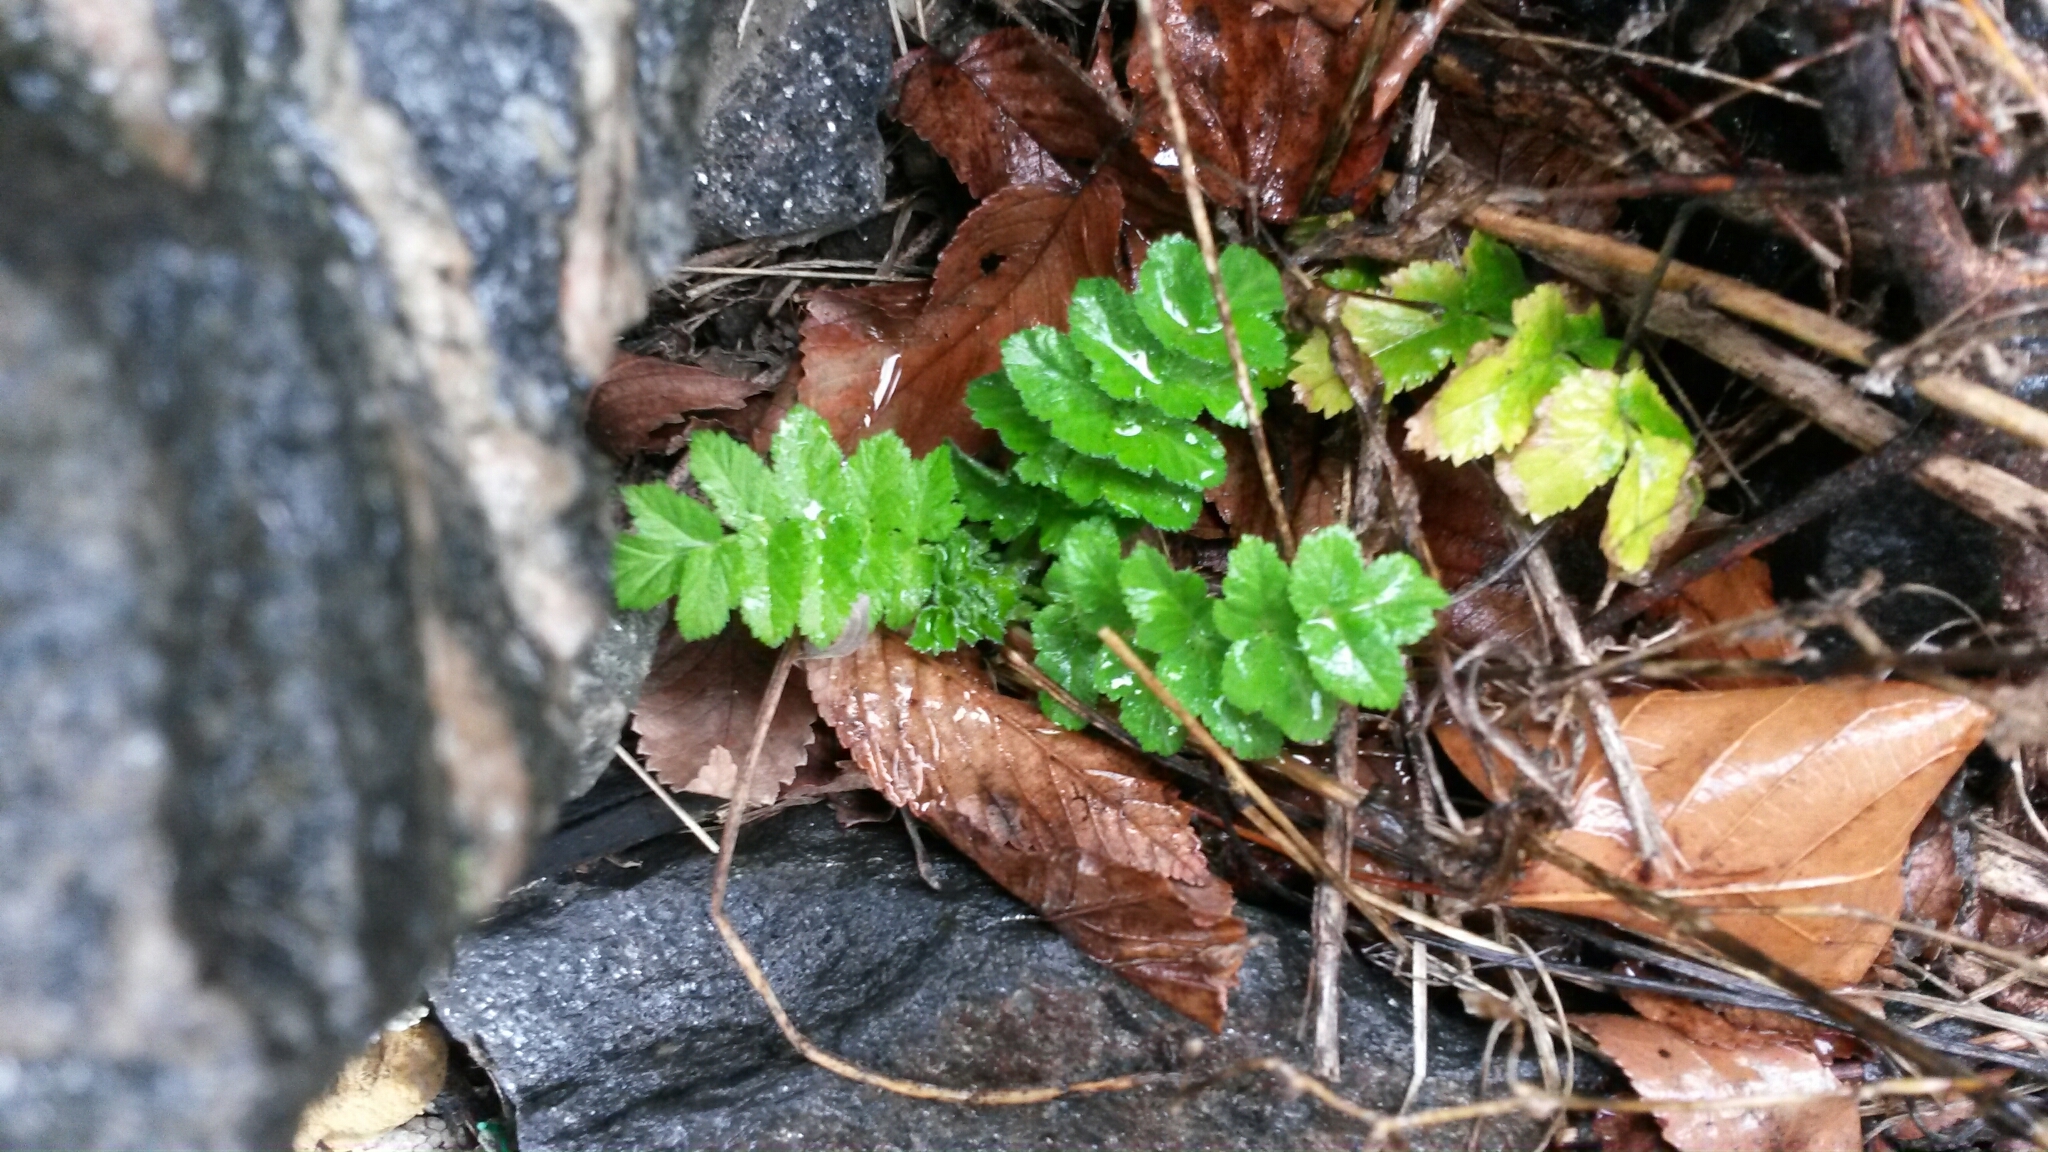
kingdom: Plantae
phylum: Tracheophyta
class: Magnoliopsida
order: Apiales
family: Apiaceae
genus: Pastinaca
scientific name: Pastinaca sativa
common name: Wild parsnip
